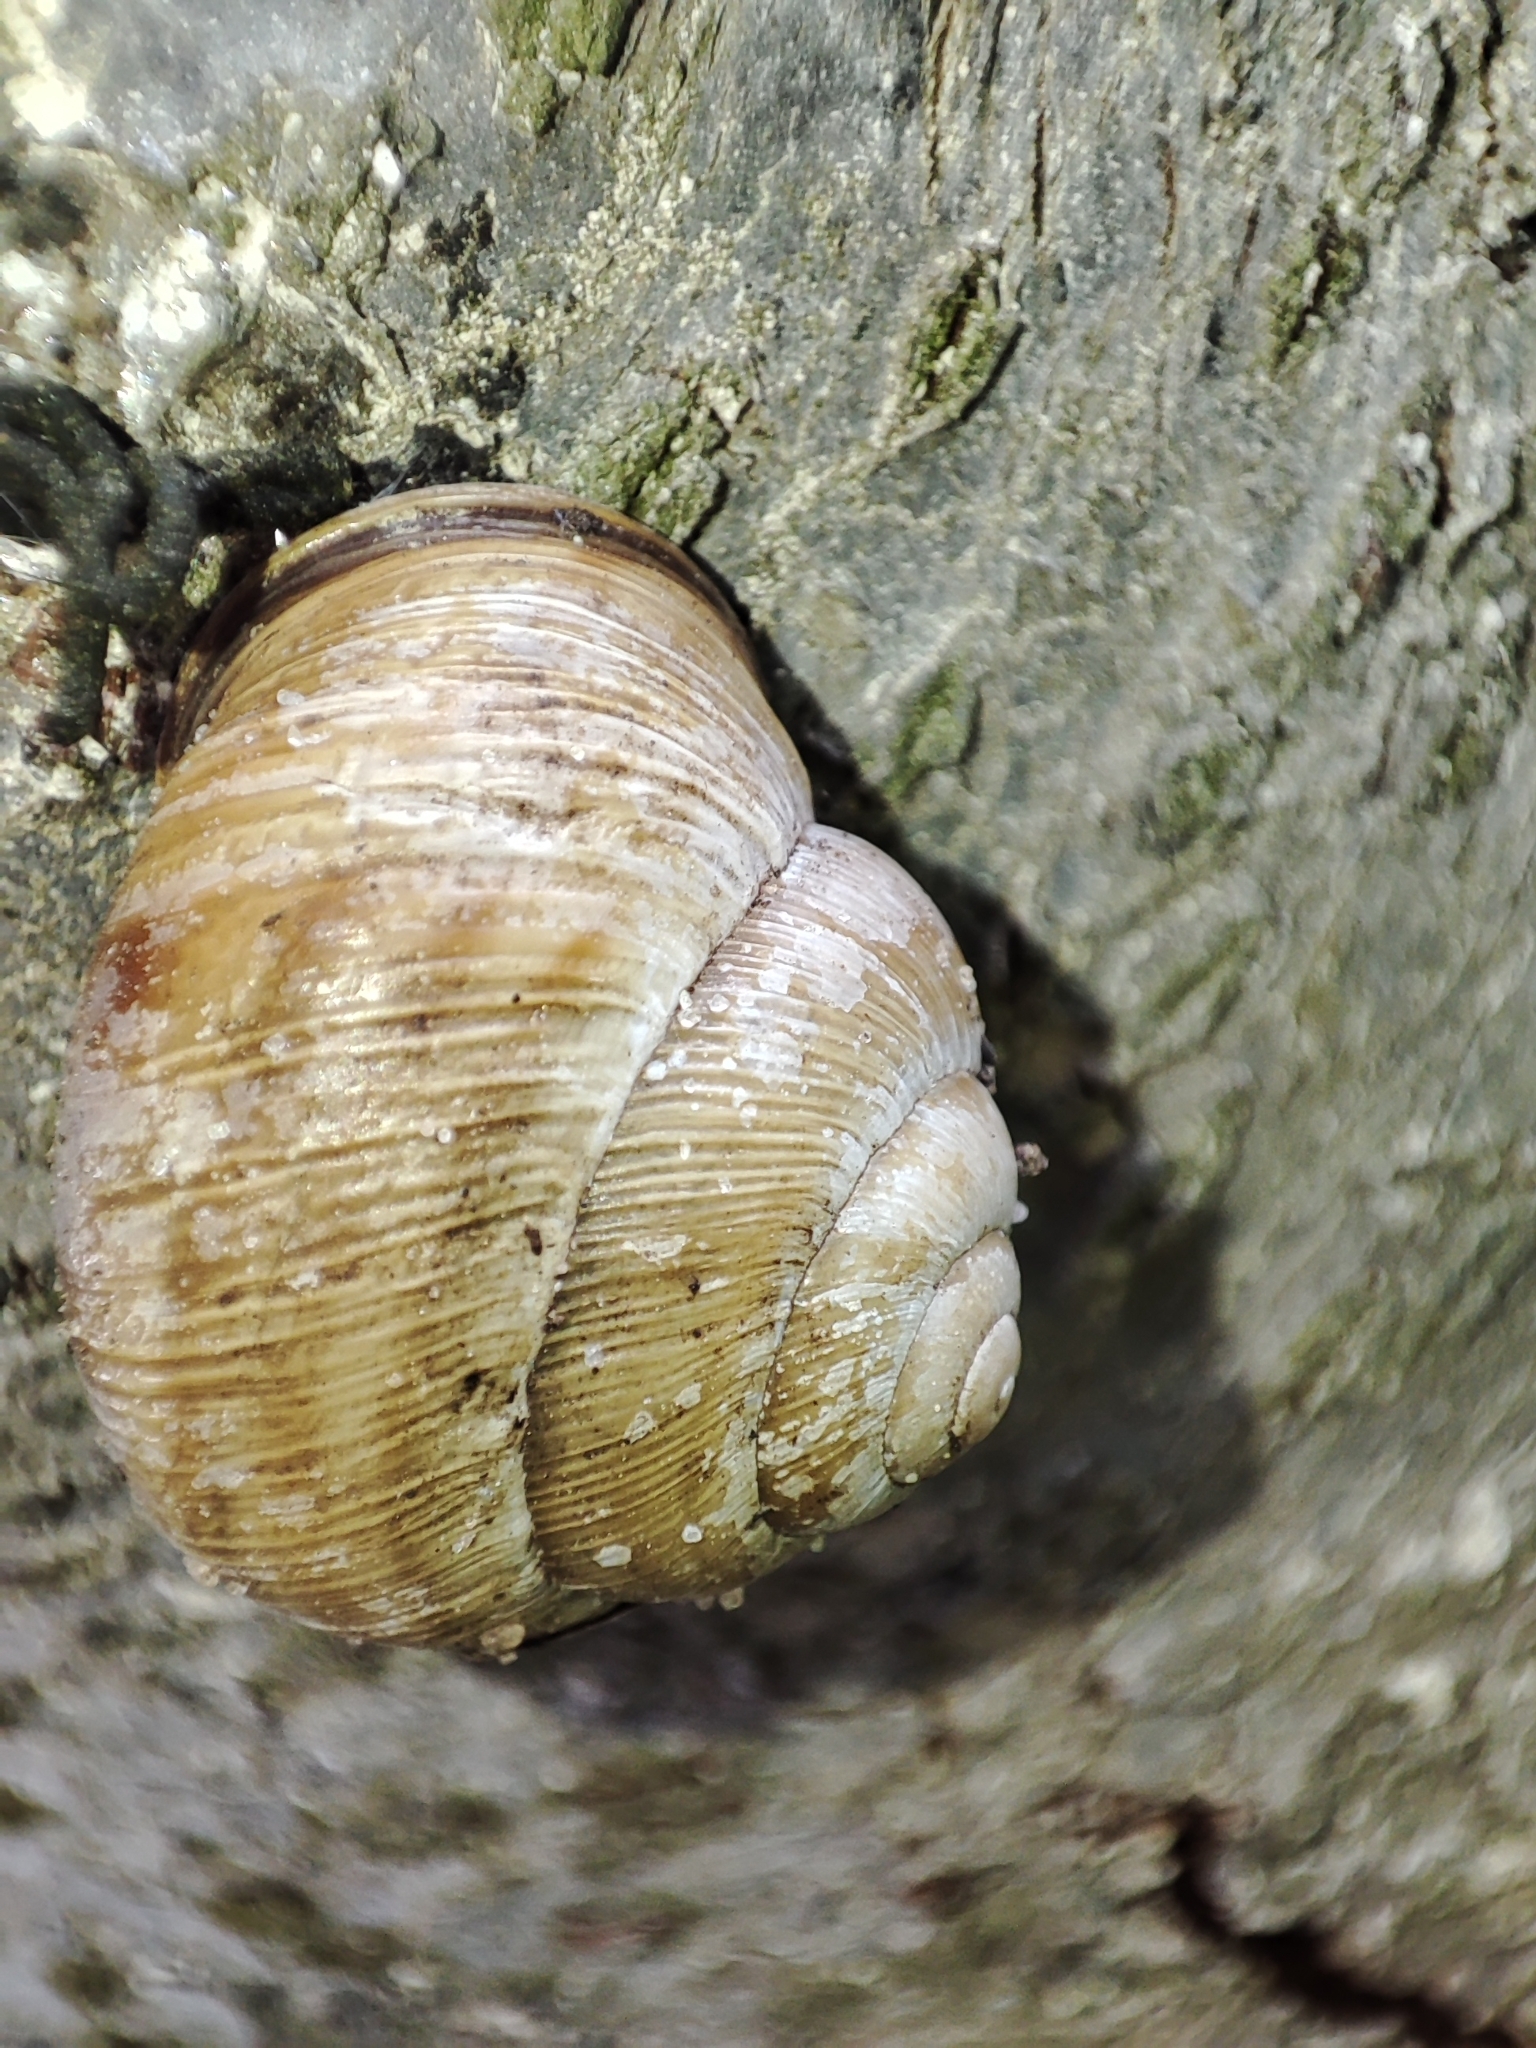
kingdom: Animalia
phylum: Mollusca
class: Gastropoda
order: Stylommatophora
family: Helicidae
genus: Caucasotachea
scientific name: Caucasotachea vindobonensis
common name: European helicid land snail
